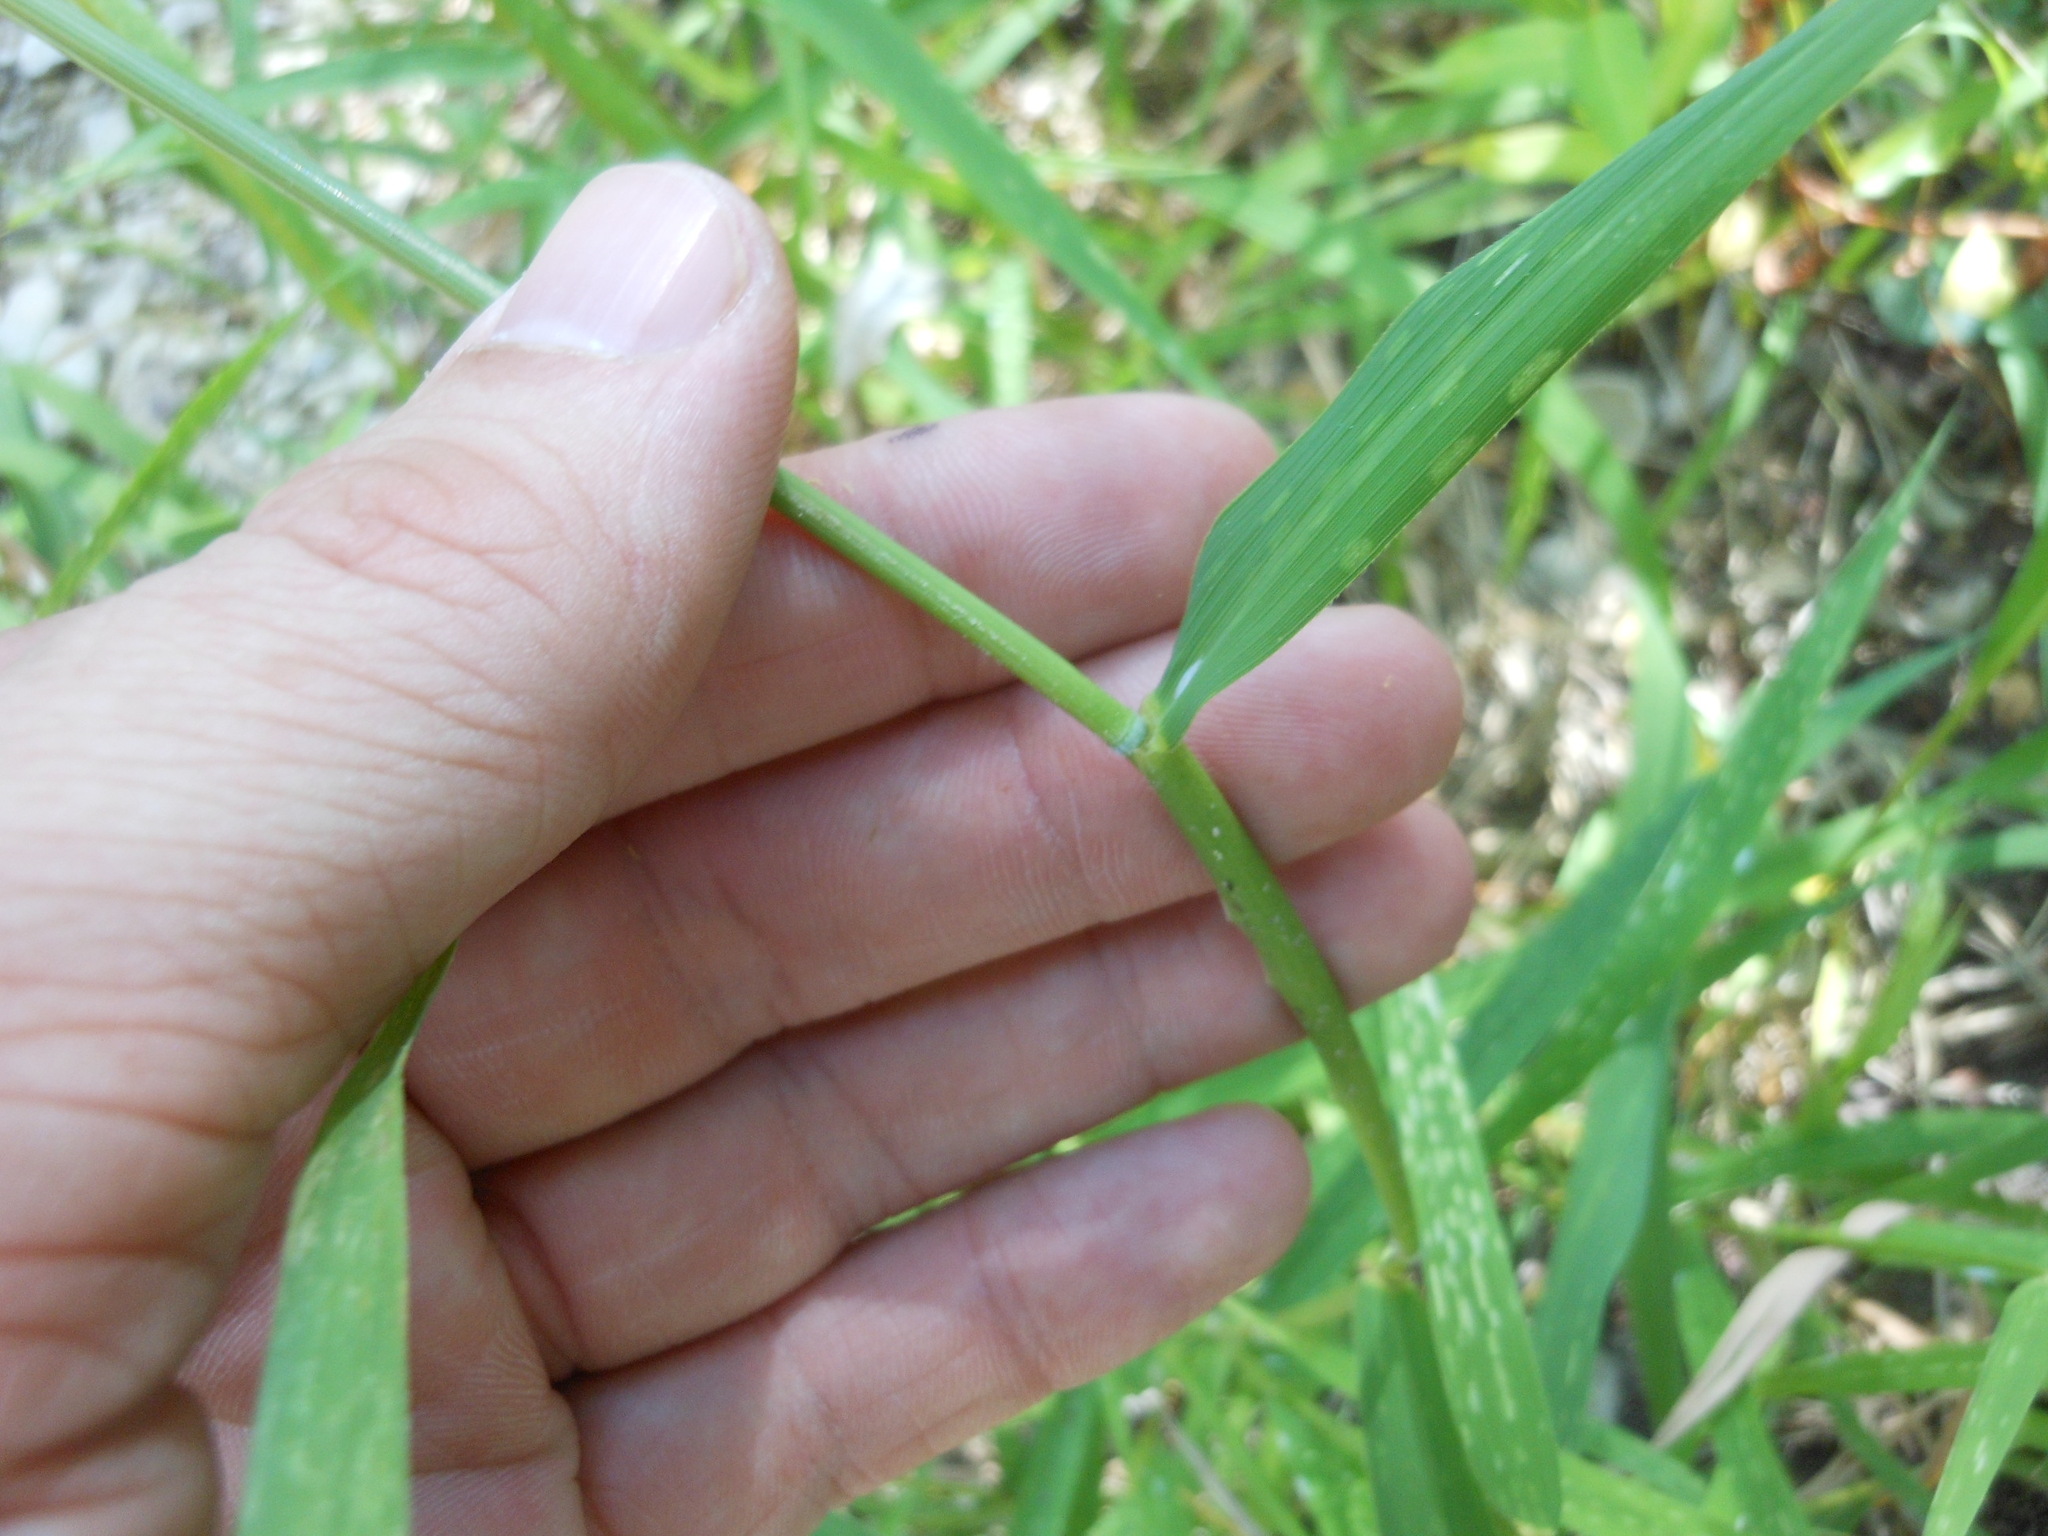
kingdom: Plantae
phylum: Tracheophyta
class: Liliopsida
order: Poales
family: Poaceae
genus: Leersia
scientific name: Leersia oryzoides
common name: Cut-grass
